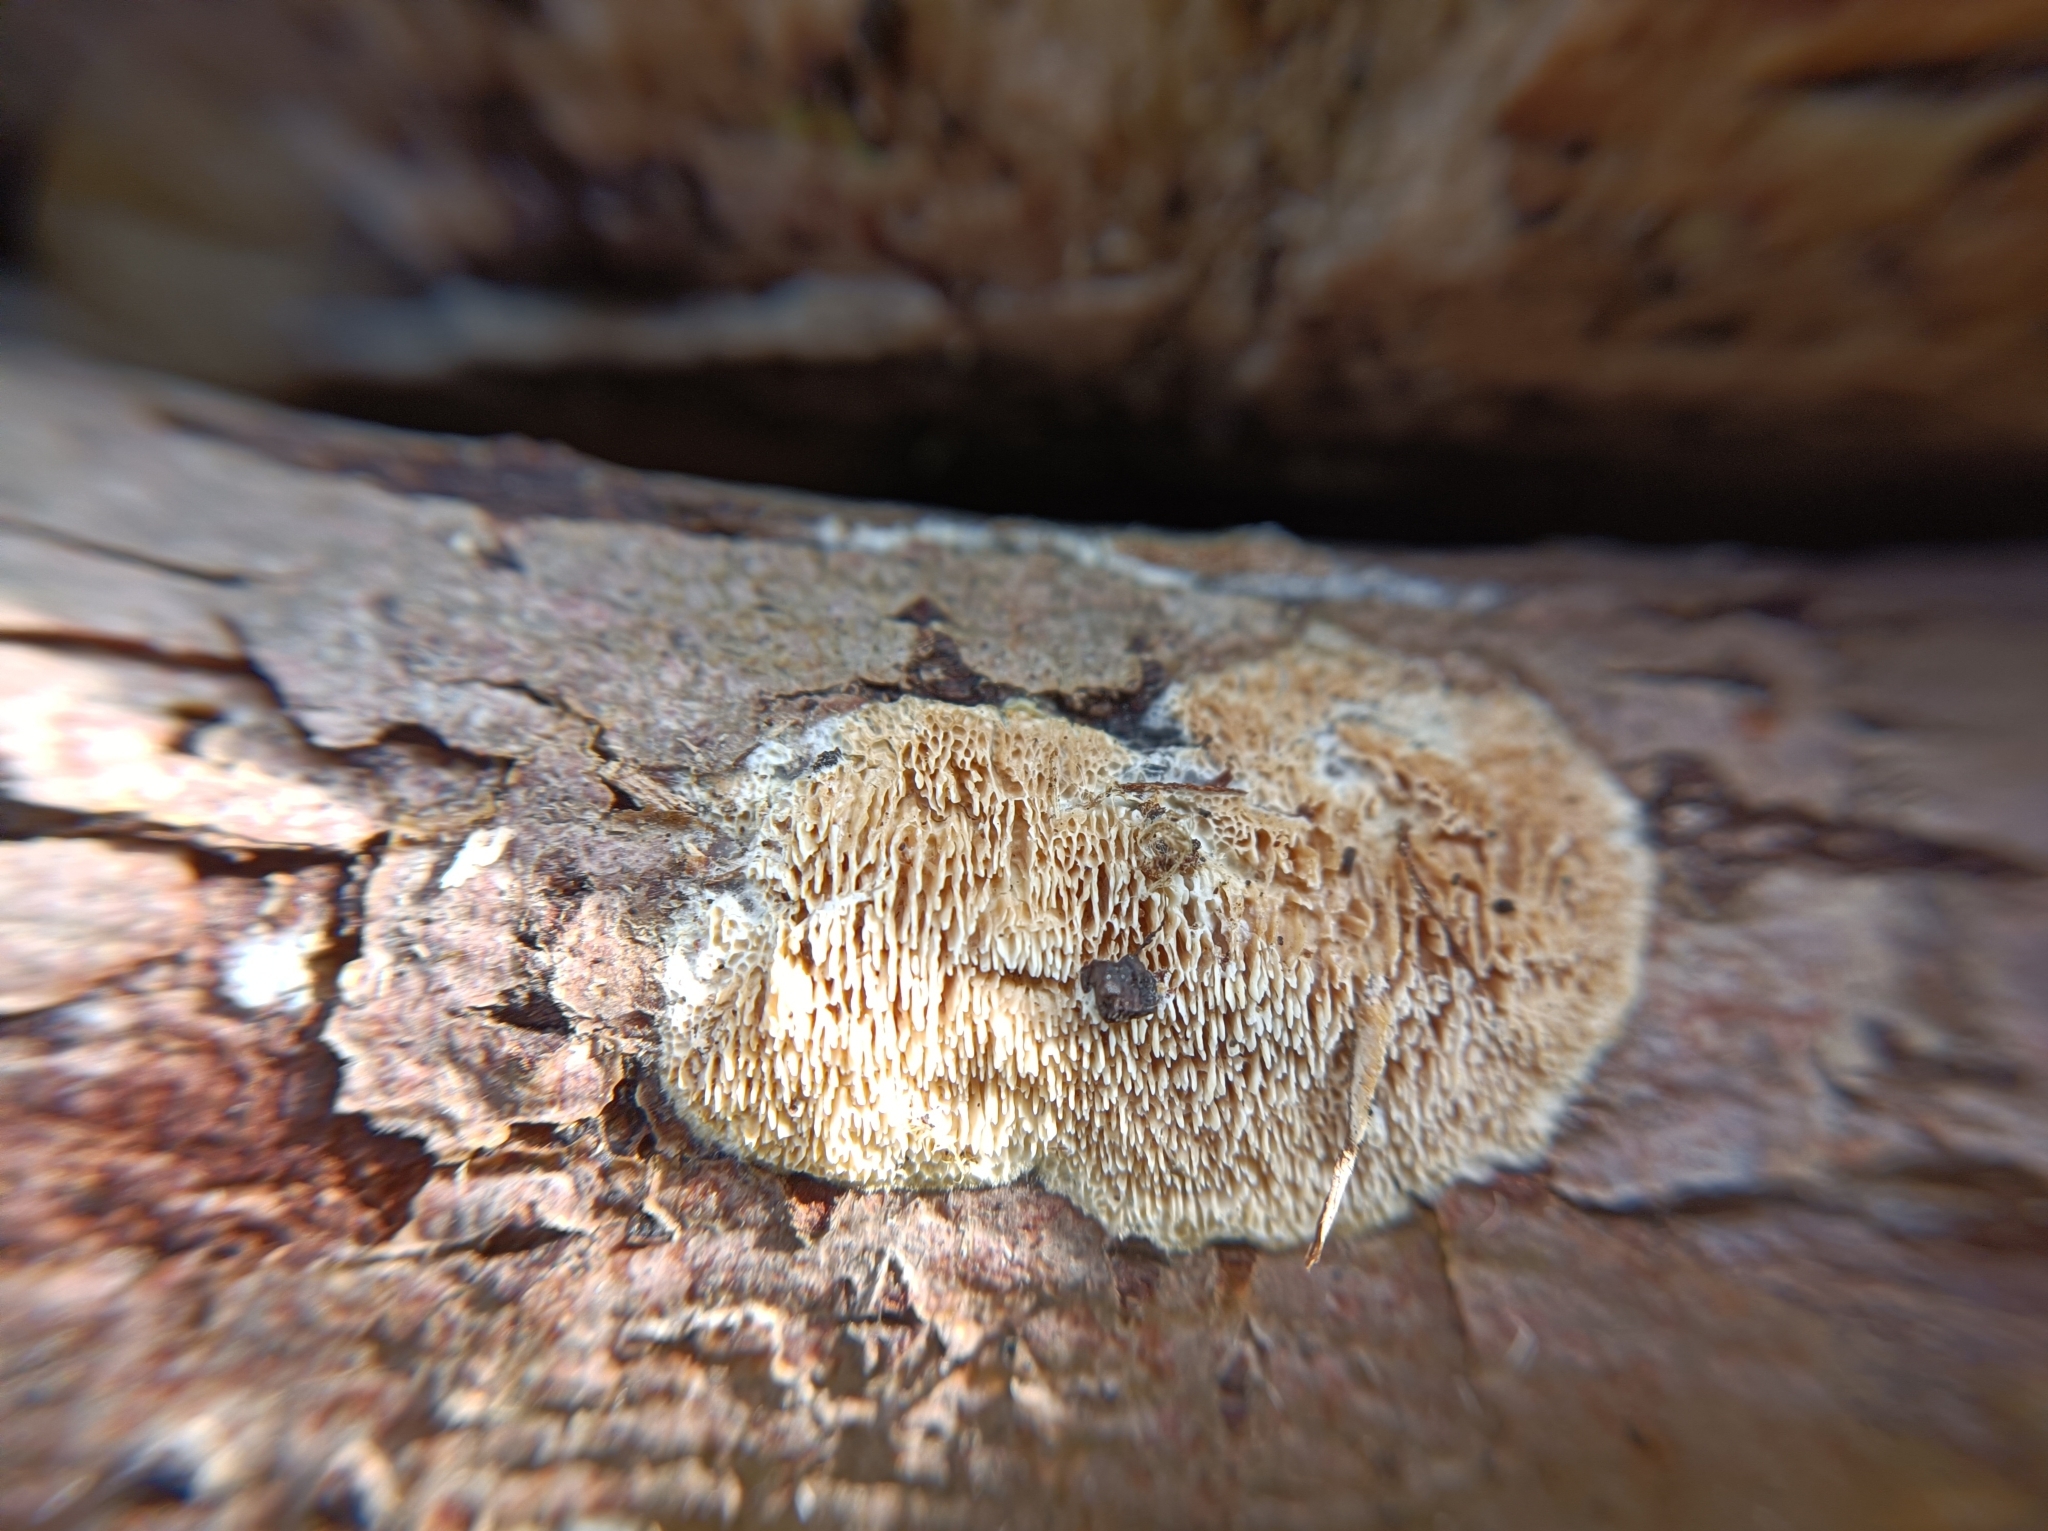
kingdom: Fungi
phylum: Basidiomycota
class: Agaricomycetes
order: Polyporales
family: Irpicaceae
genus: Irpex
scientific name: Irpex lacteus
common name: Milk-white toothed polypore
